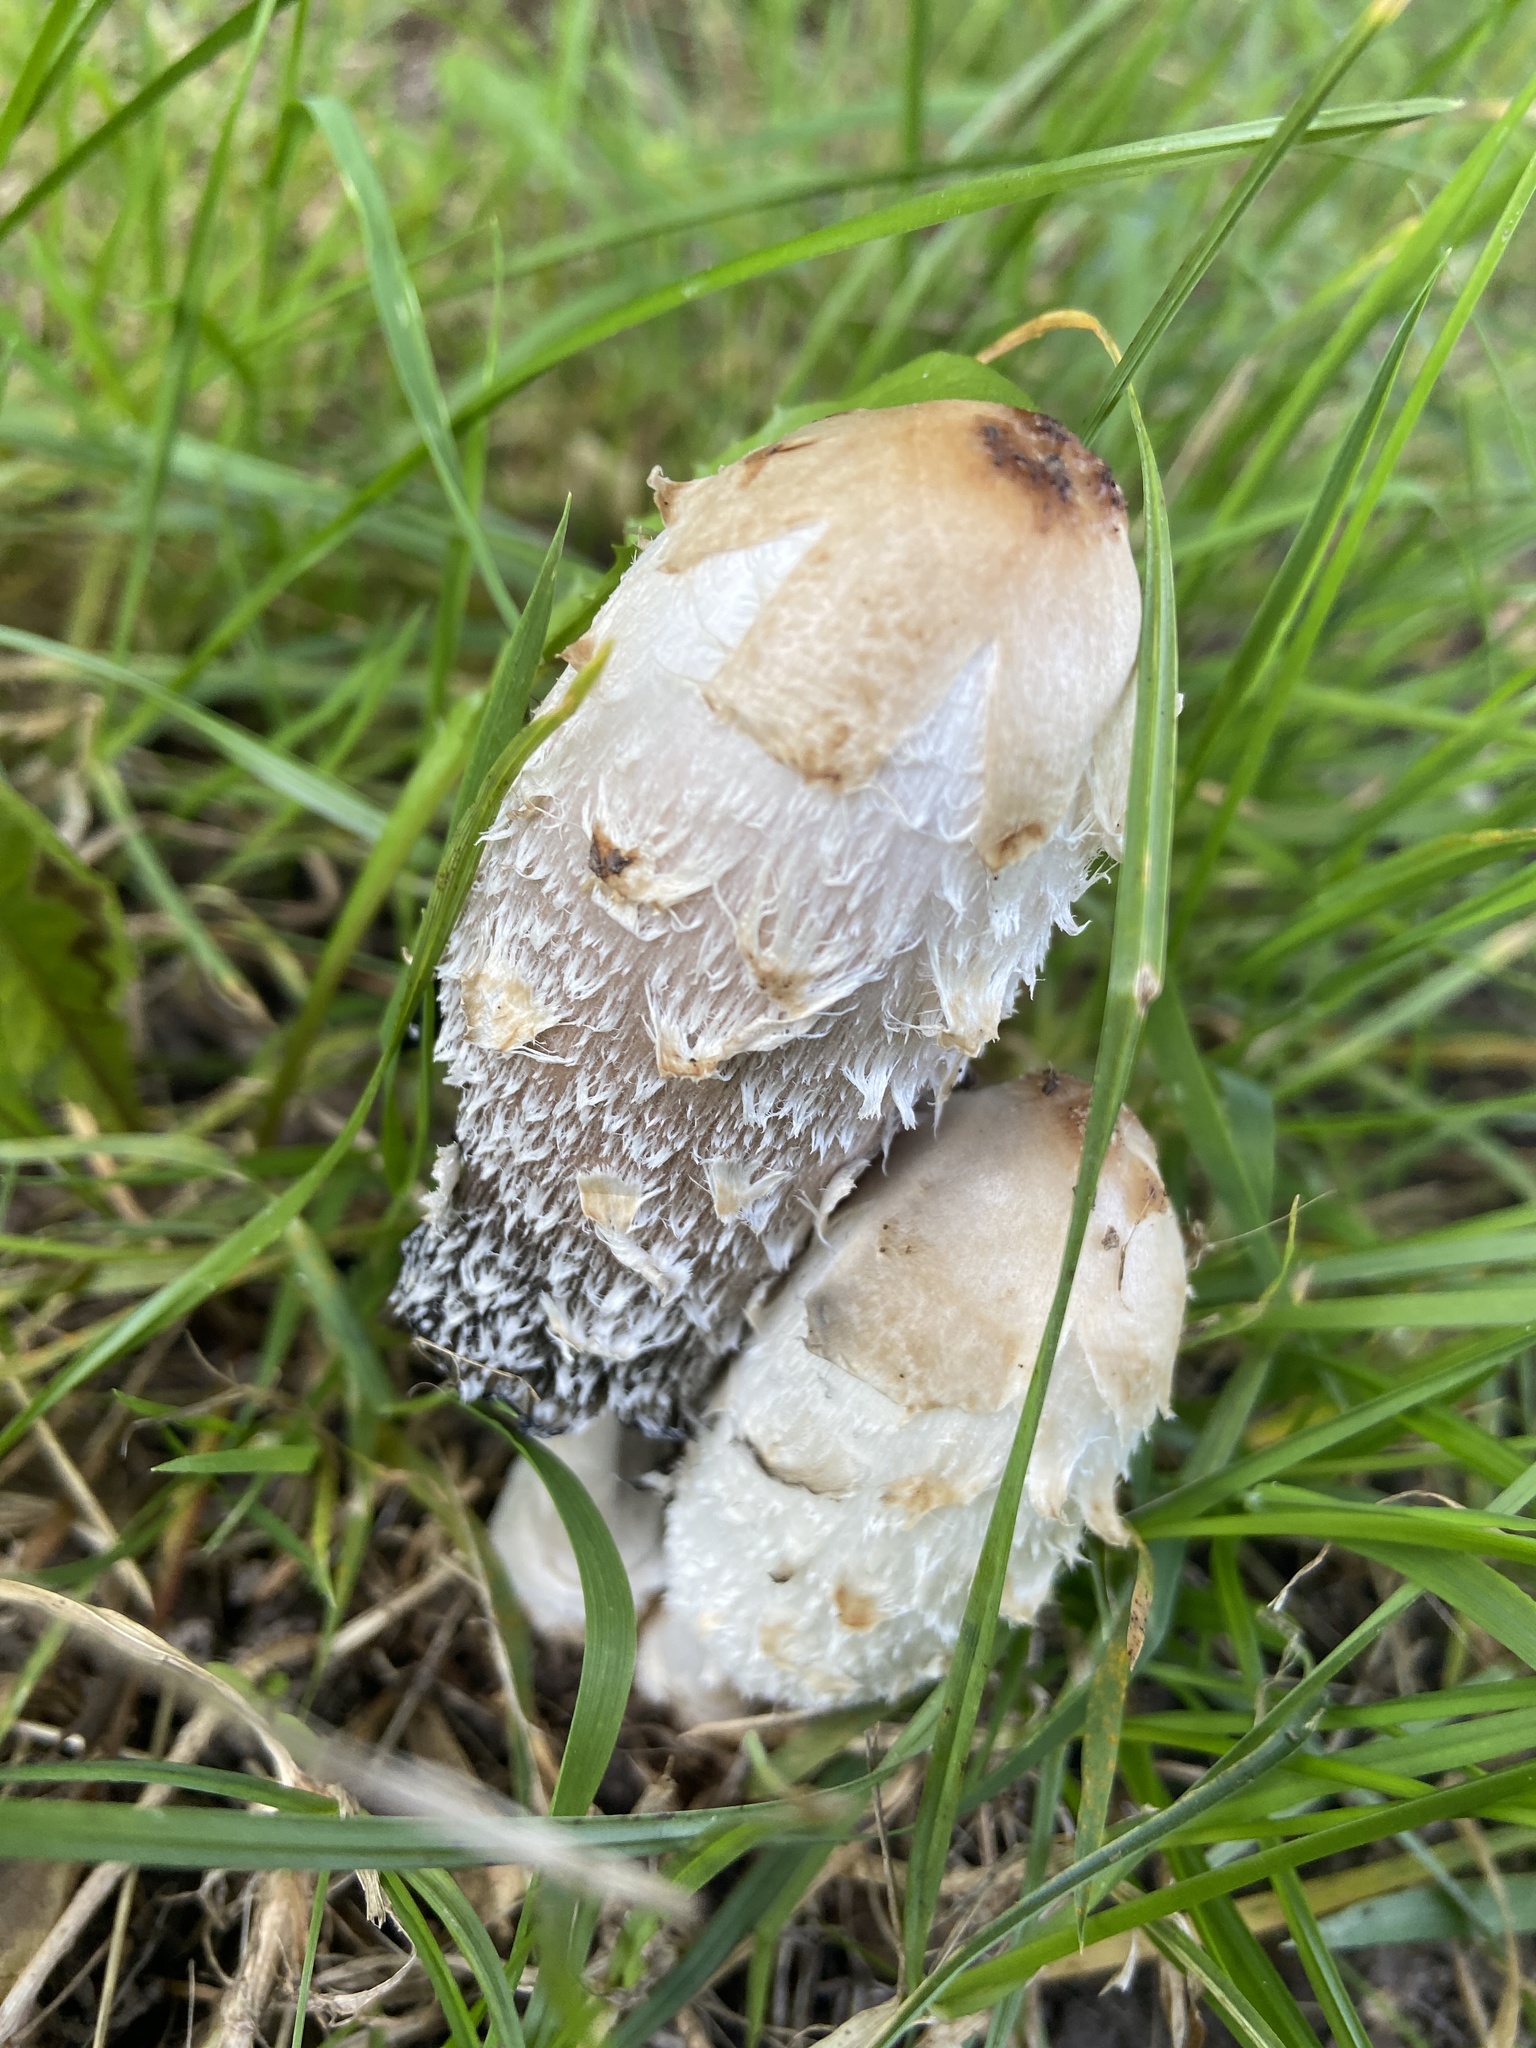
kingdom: Fungi
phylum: Basidiomycota
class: Agaricomycetes
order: Agaricales
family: Agaricaceae
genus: Coprinus
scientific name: Coprinus comatus
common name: Lawyer's wig
